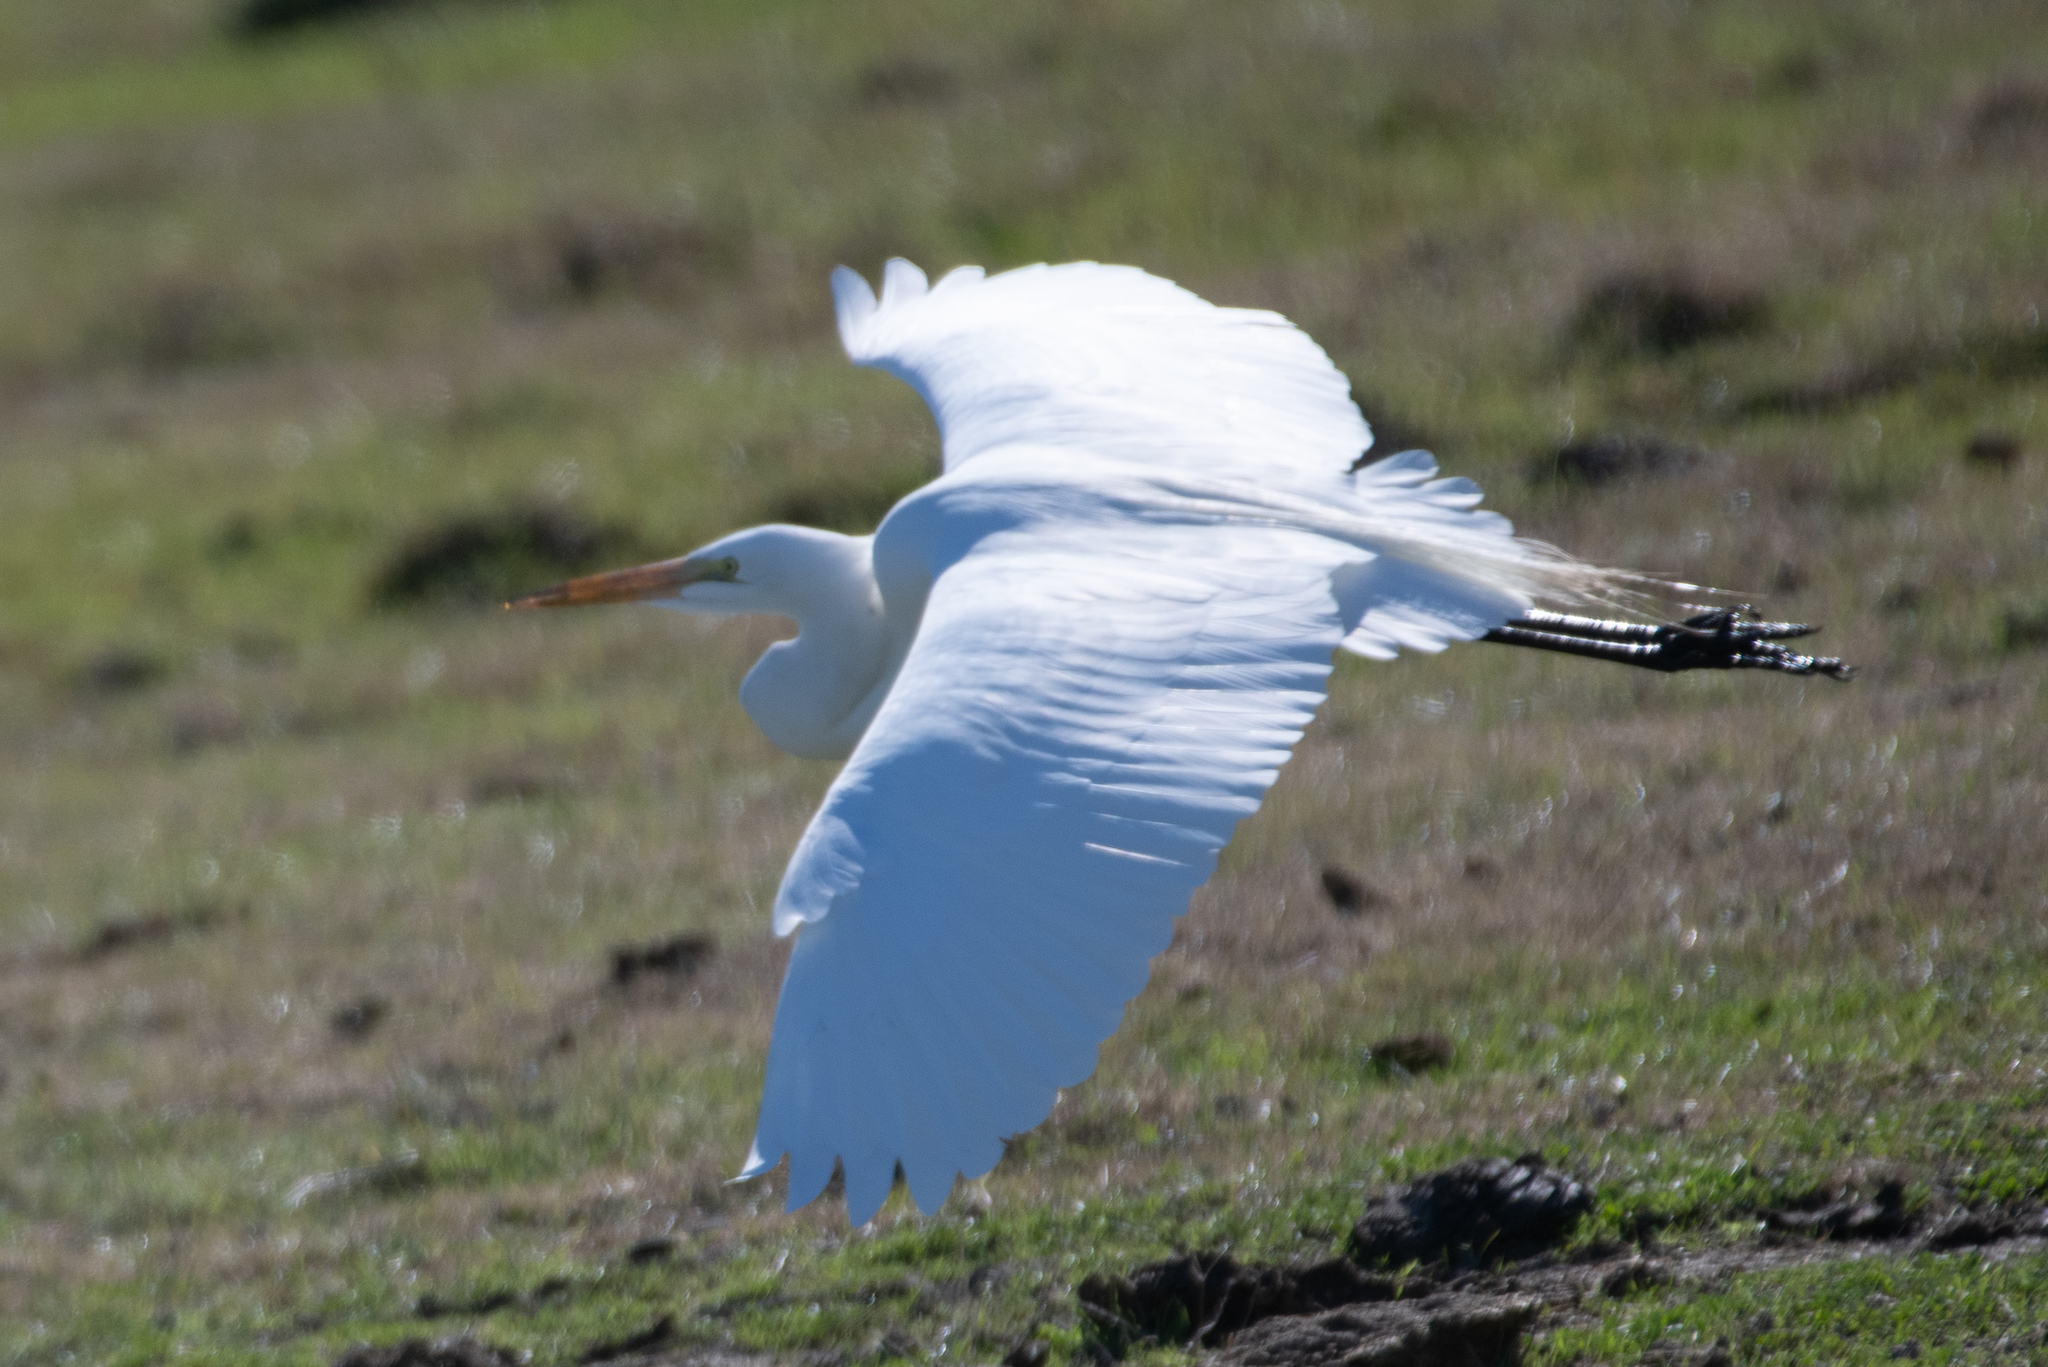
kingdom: Animalia
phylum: Chordata
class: Aves
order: Pelecaniformes
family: Ardeidae
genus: Ardea
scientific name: Ardea alba
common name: Great egret
